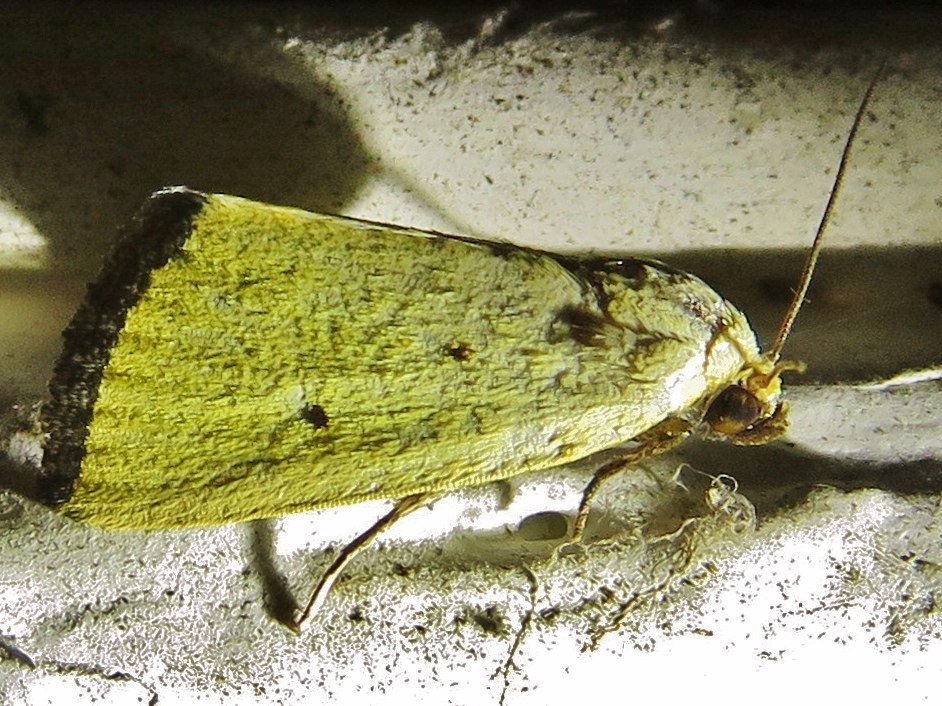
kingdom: Animalia
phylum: Arthropoda
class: Insecta
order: Lepidoptera
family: Noctuidae
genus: Marimatha
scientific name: Marimatha nigrofimbria
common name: Black-bordered lemon moth
